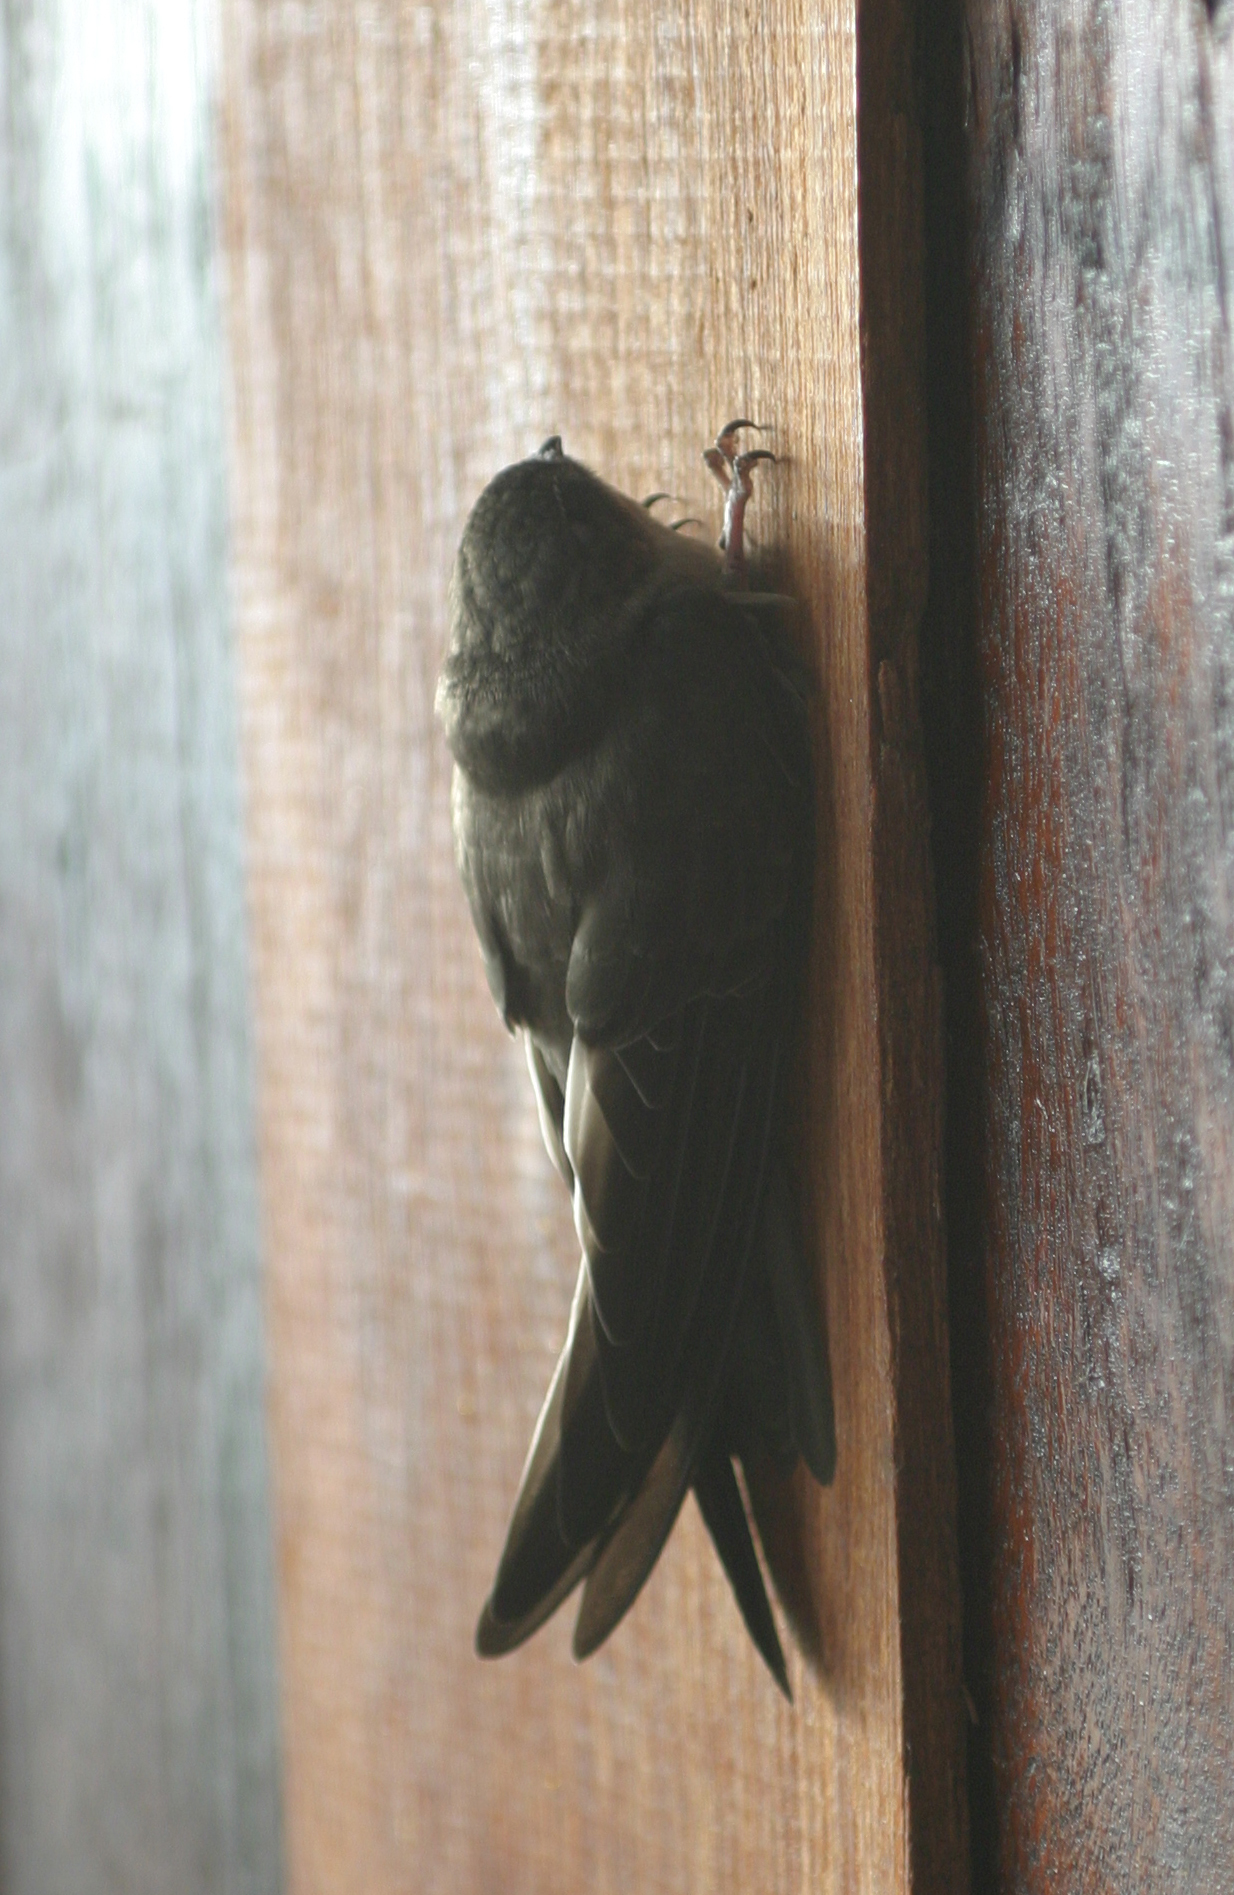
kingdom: Animalia
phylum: Chordata
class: Aves
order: Apodiformes
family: Apodidae
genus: Aerodramus
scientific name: Aerodramus
